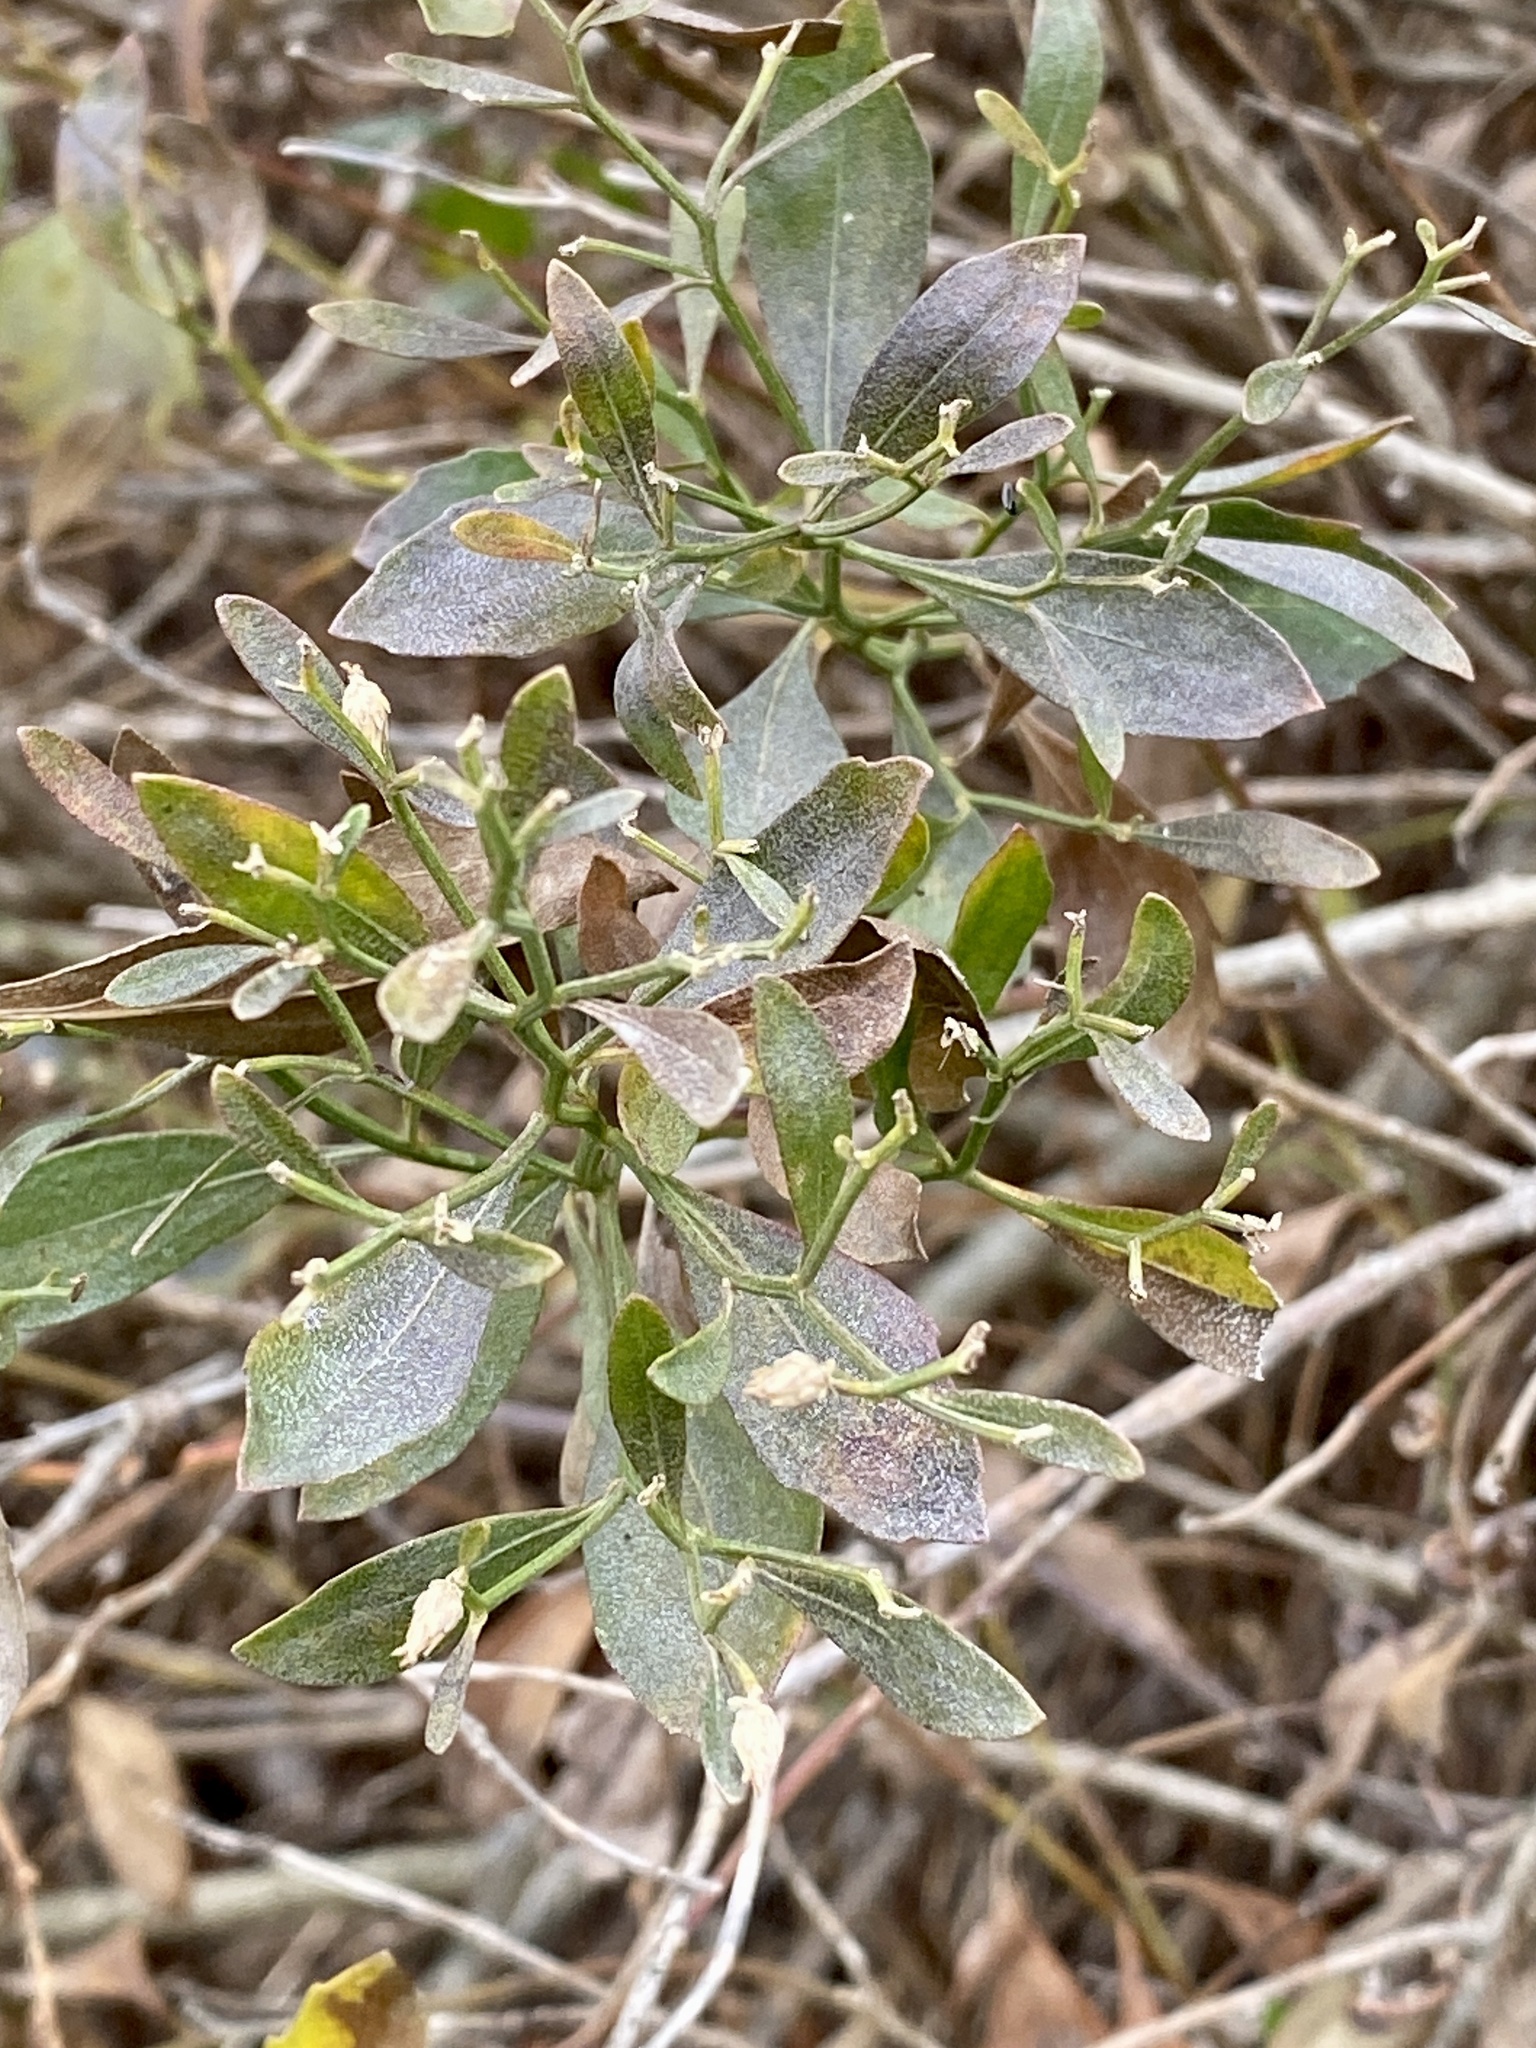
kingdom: Plantae
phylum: Tracheophyta
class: Magnoliopsida
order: Asterales
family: Asteraceae
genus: Baccharis
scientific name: Baccharis halimifolia
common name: Eastern baccharis
